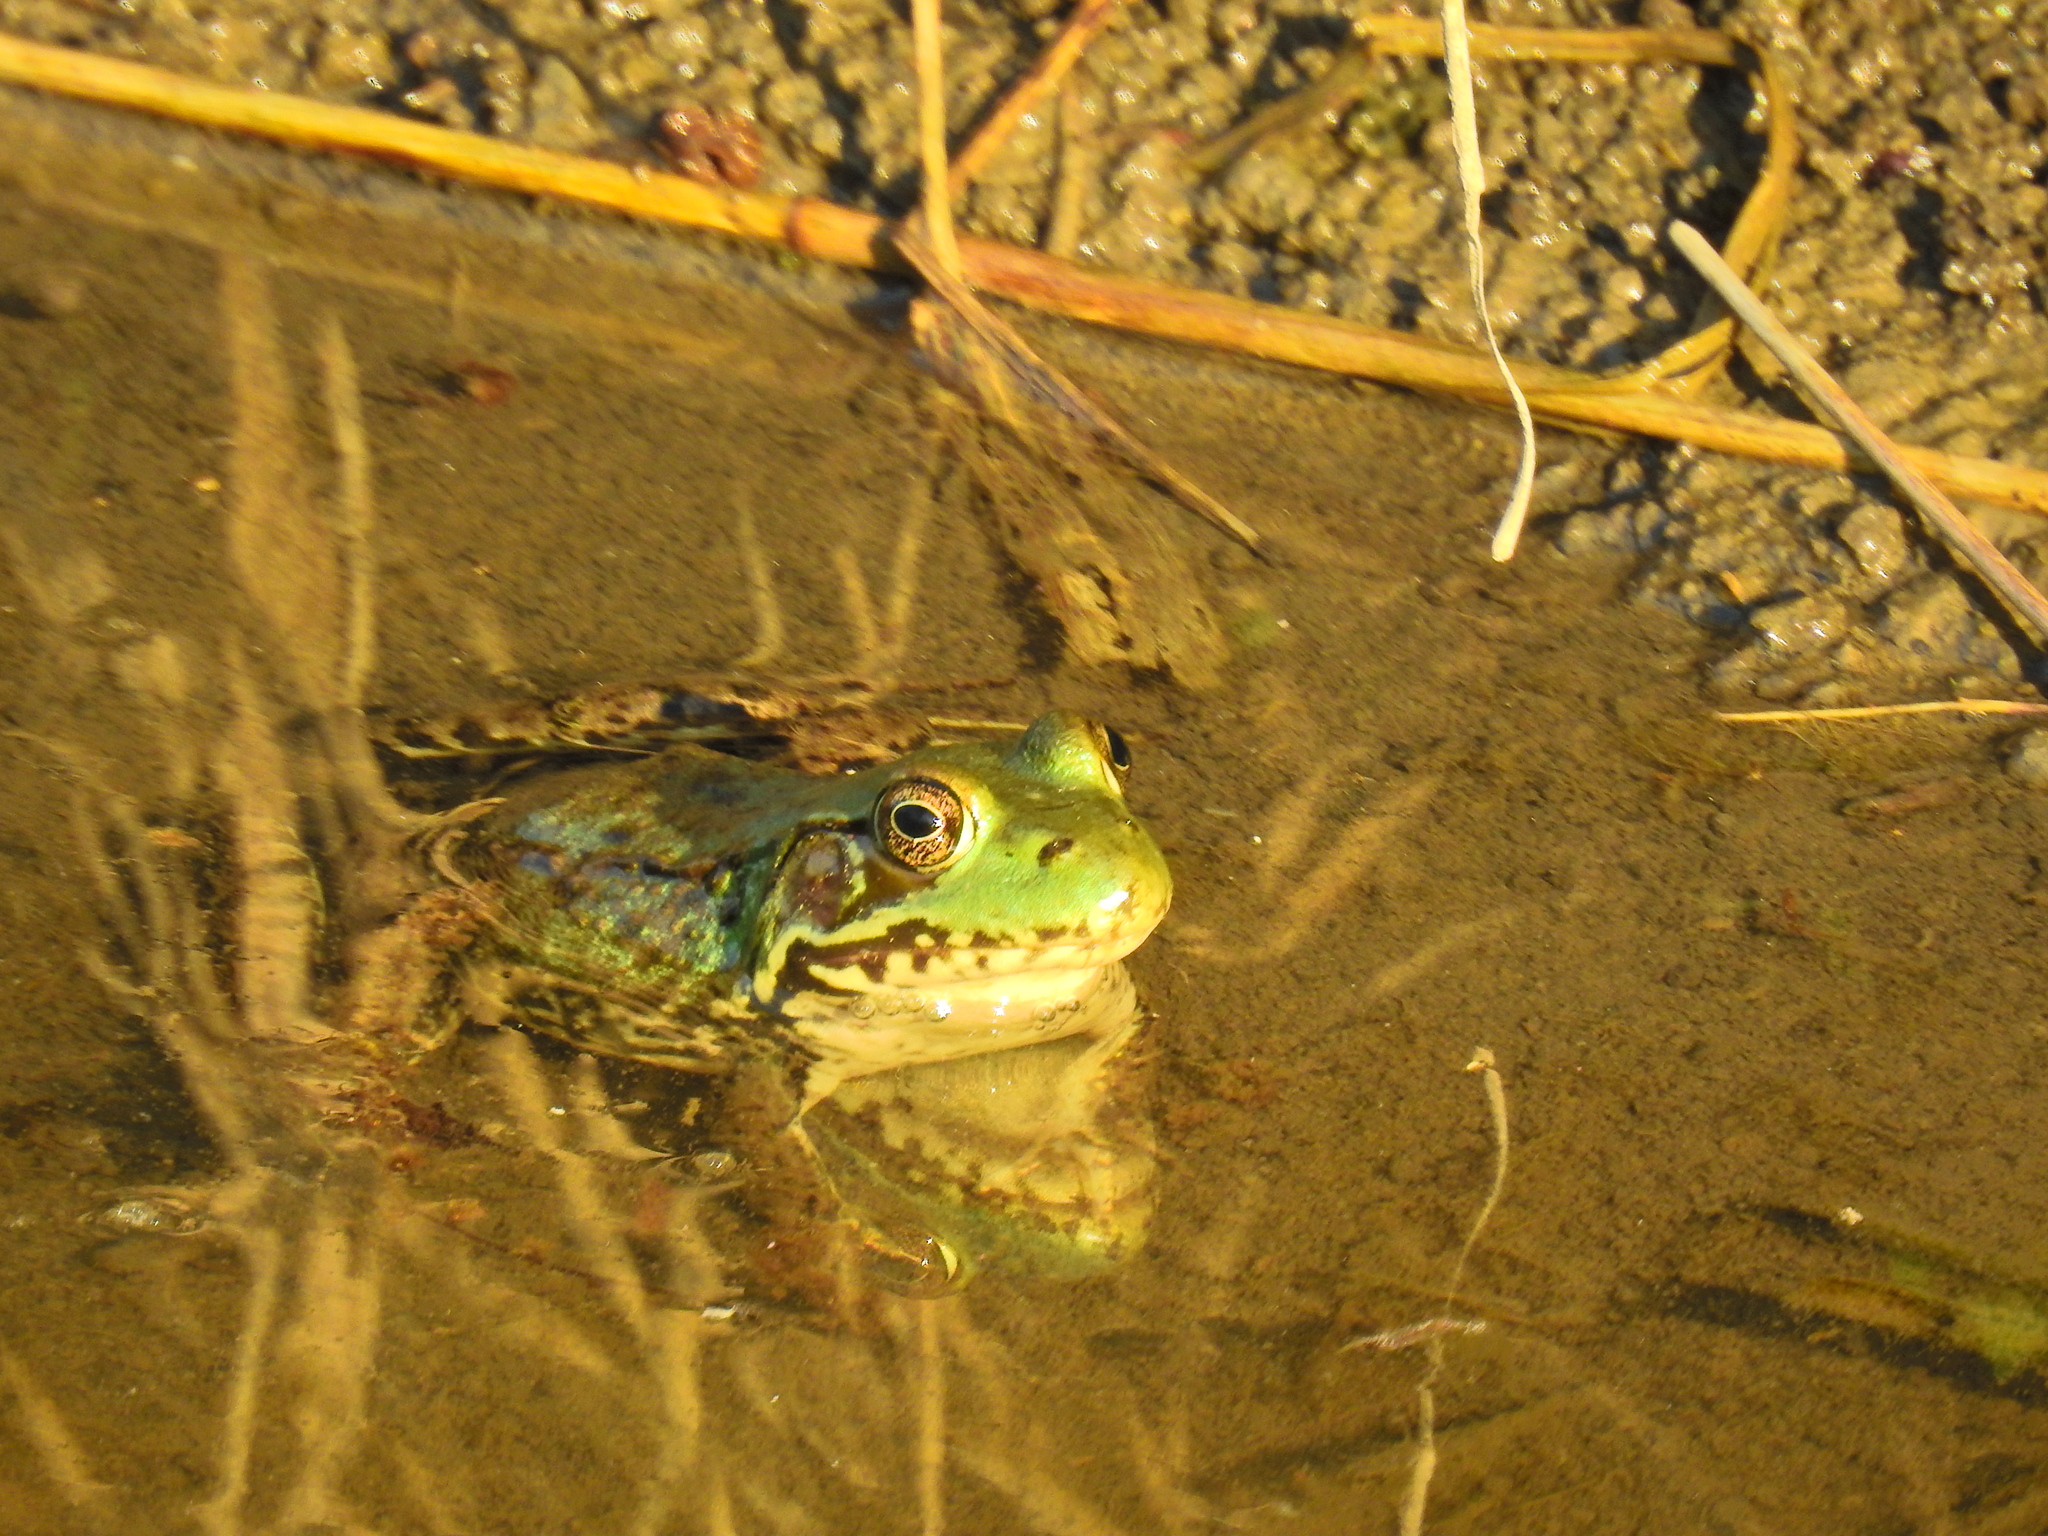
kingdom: Animalia
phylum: Chordata
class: Amphibia
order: Anura
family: Ranidae
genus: Lithobates
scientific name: Lithobates clamitans
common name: Green frog
